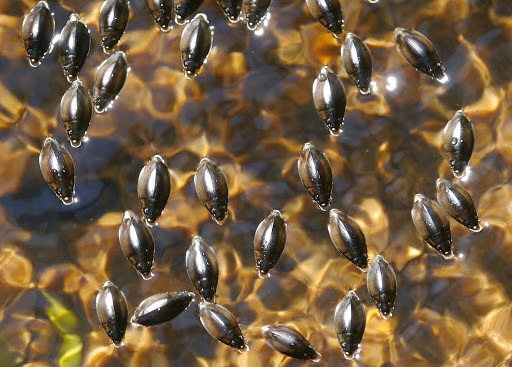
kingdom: Animalia
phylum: Arthropoda
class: Insecta
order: Coleoptera
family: Gyrinidae
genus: Dineutus
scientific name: Dineutus
